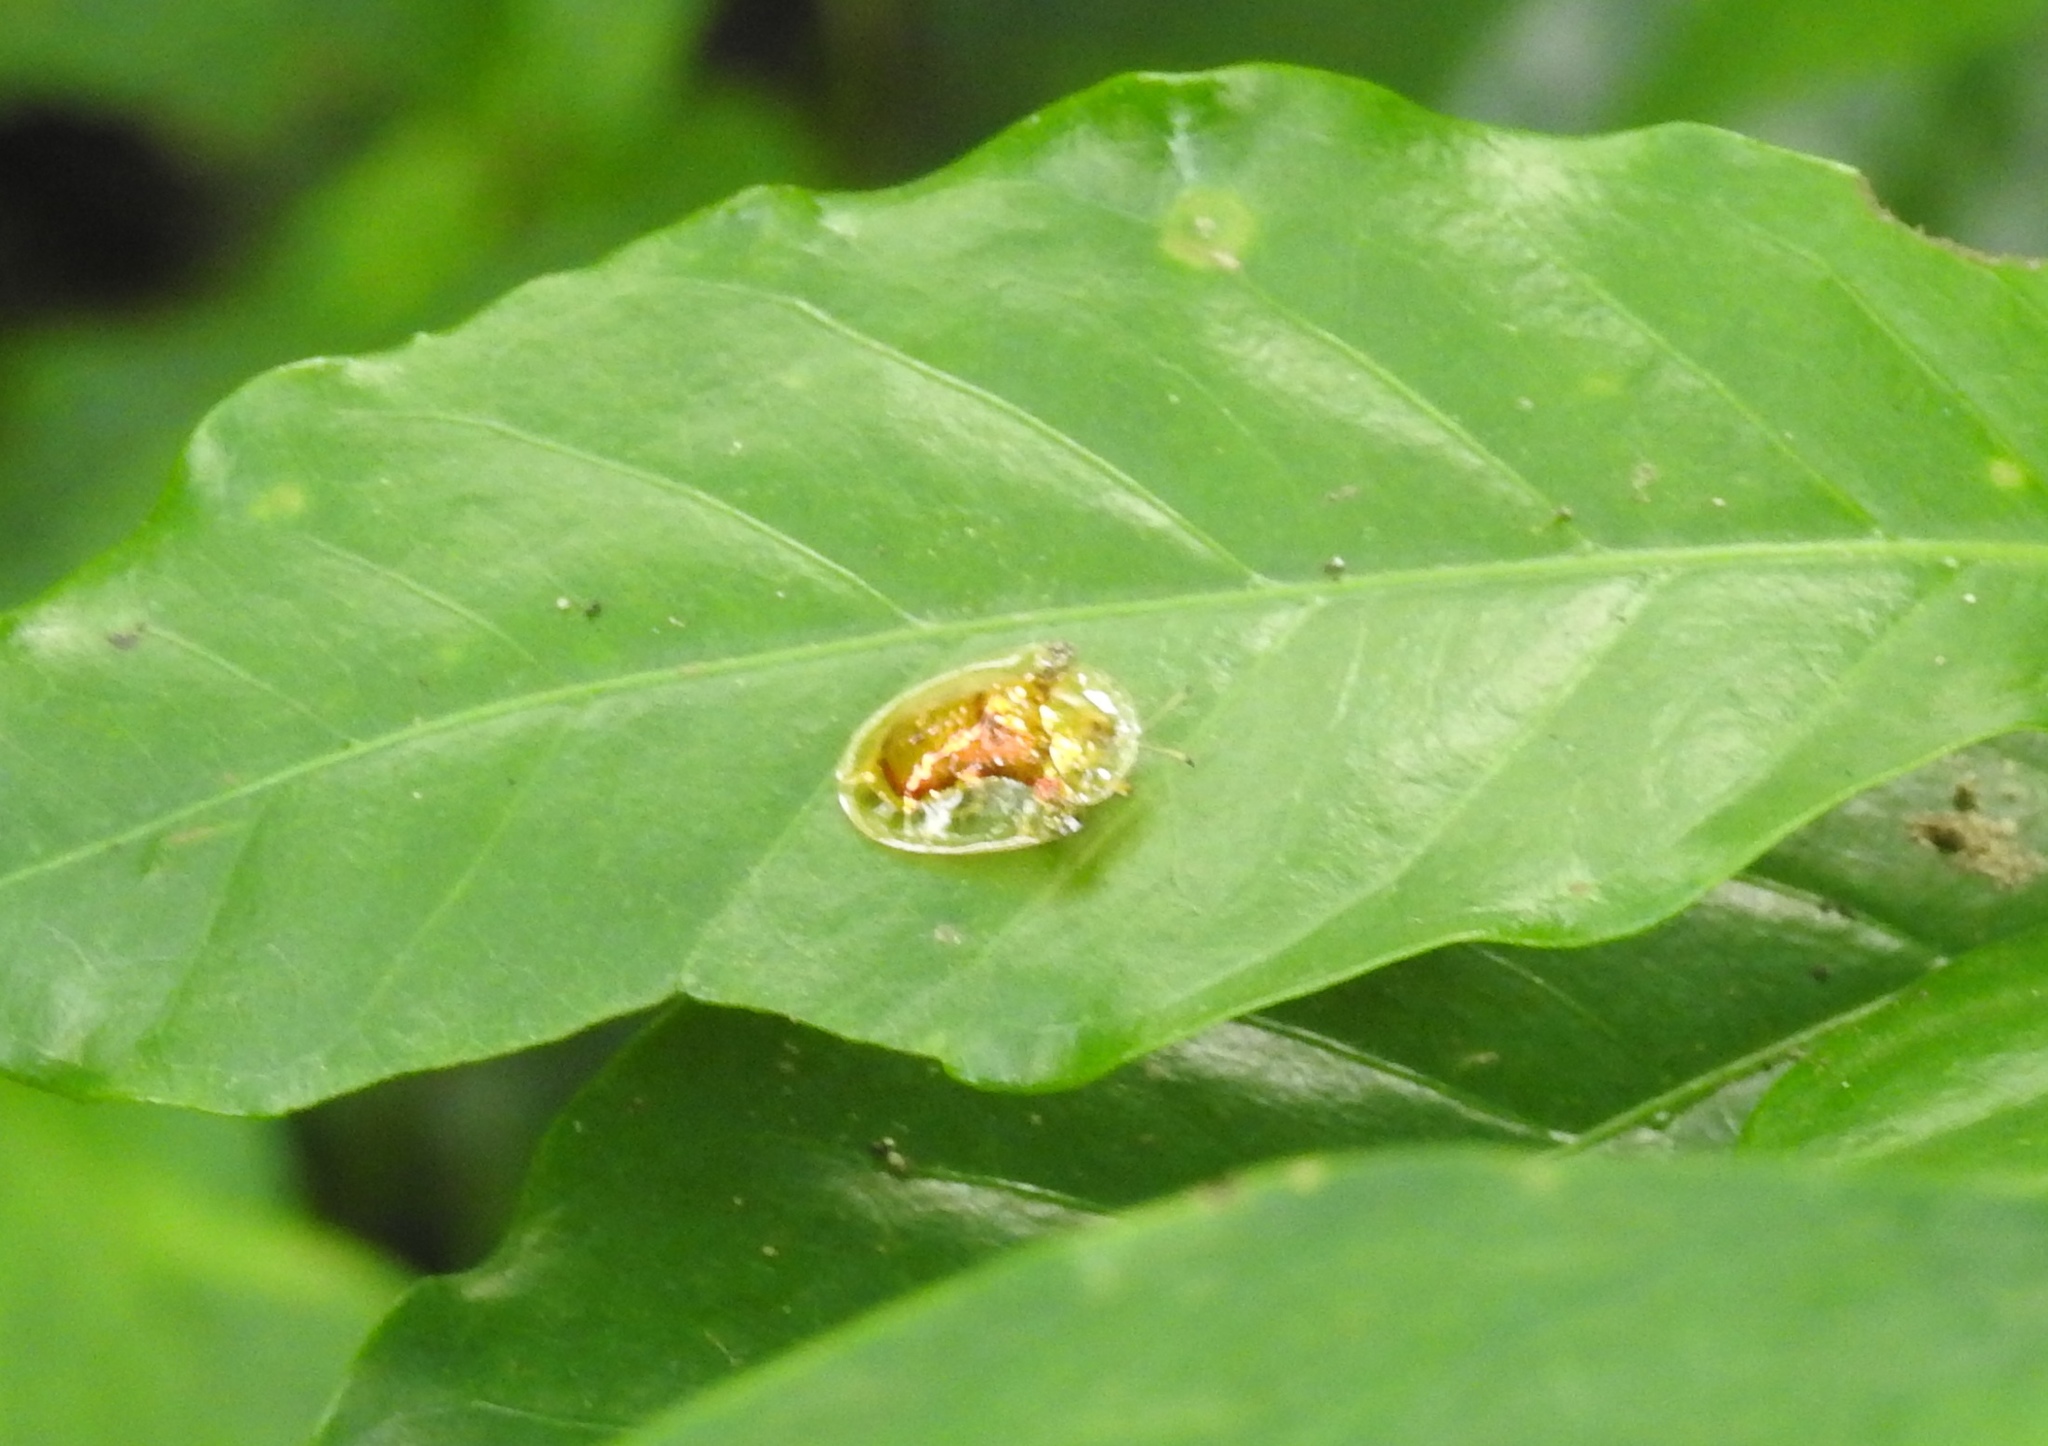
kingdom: Animalia
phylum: Arthropoda
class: Insecta
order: Coleoptera
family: Chrysomelidae
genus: Aspidimorpha
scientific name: Aspidimorpha sanctaecrucis
